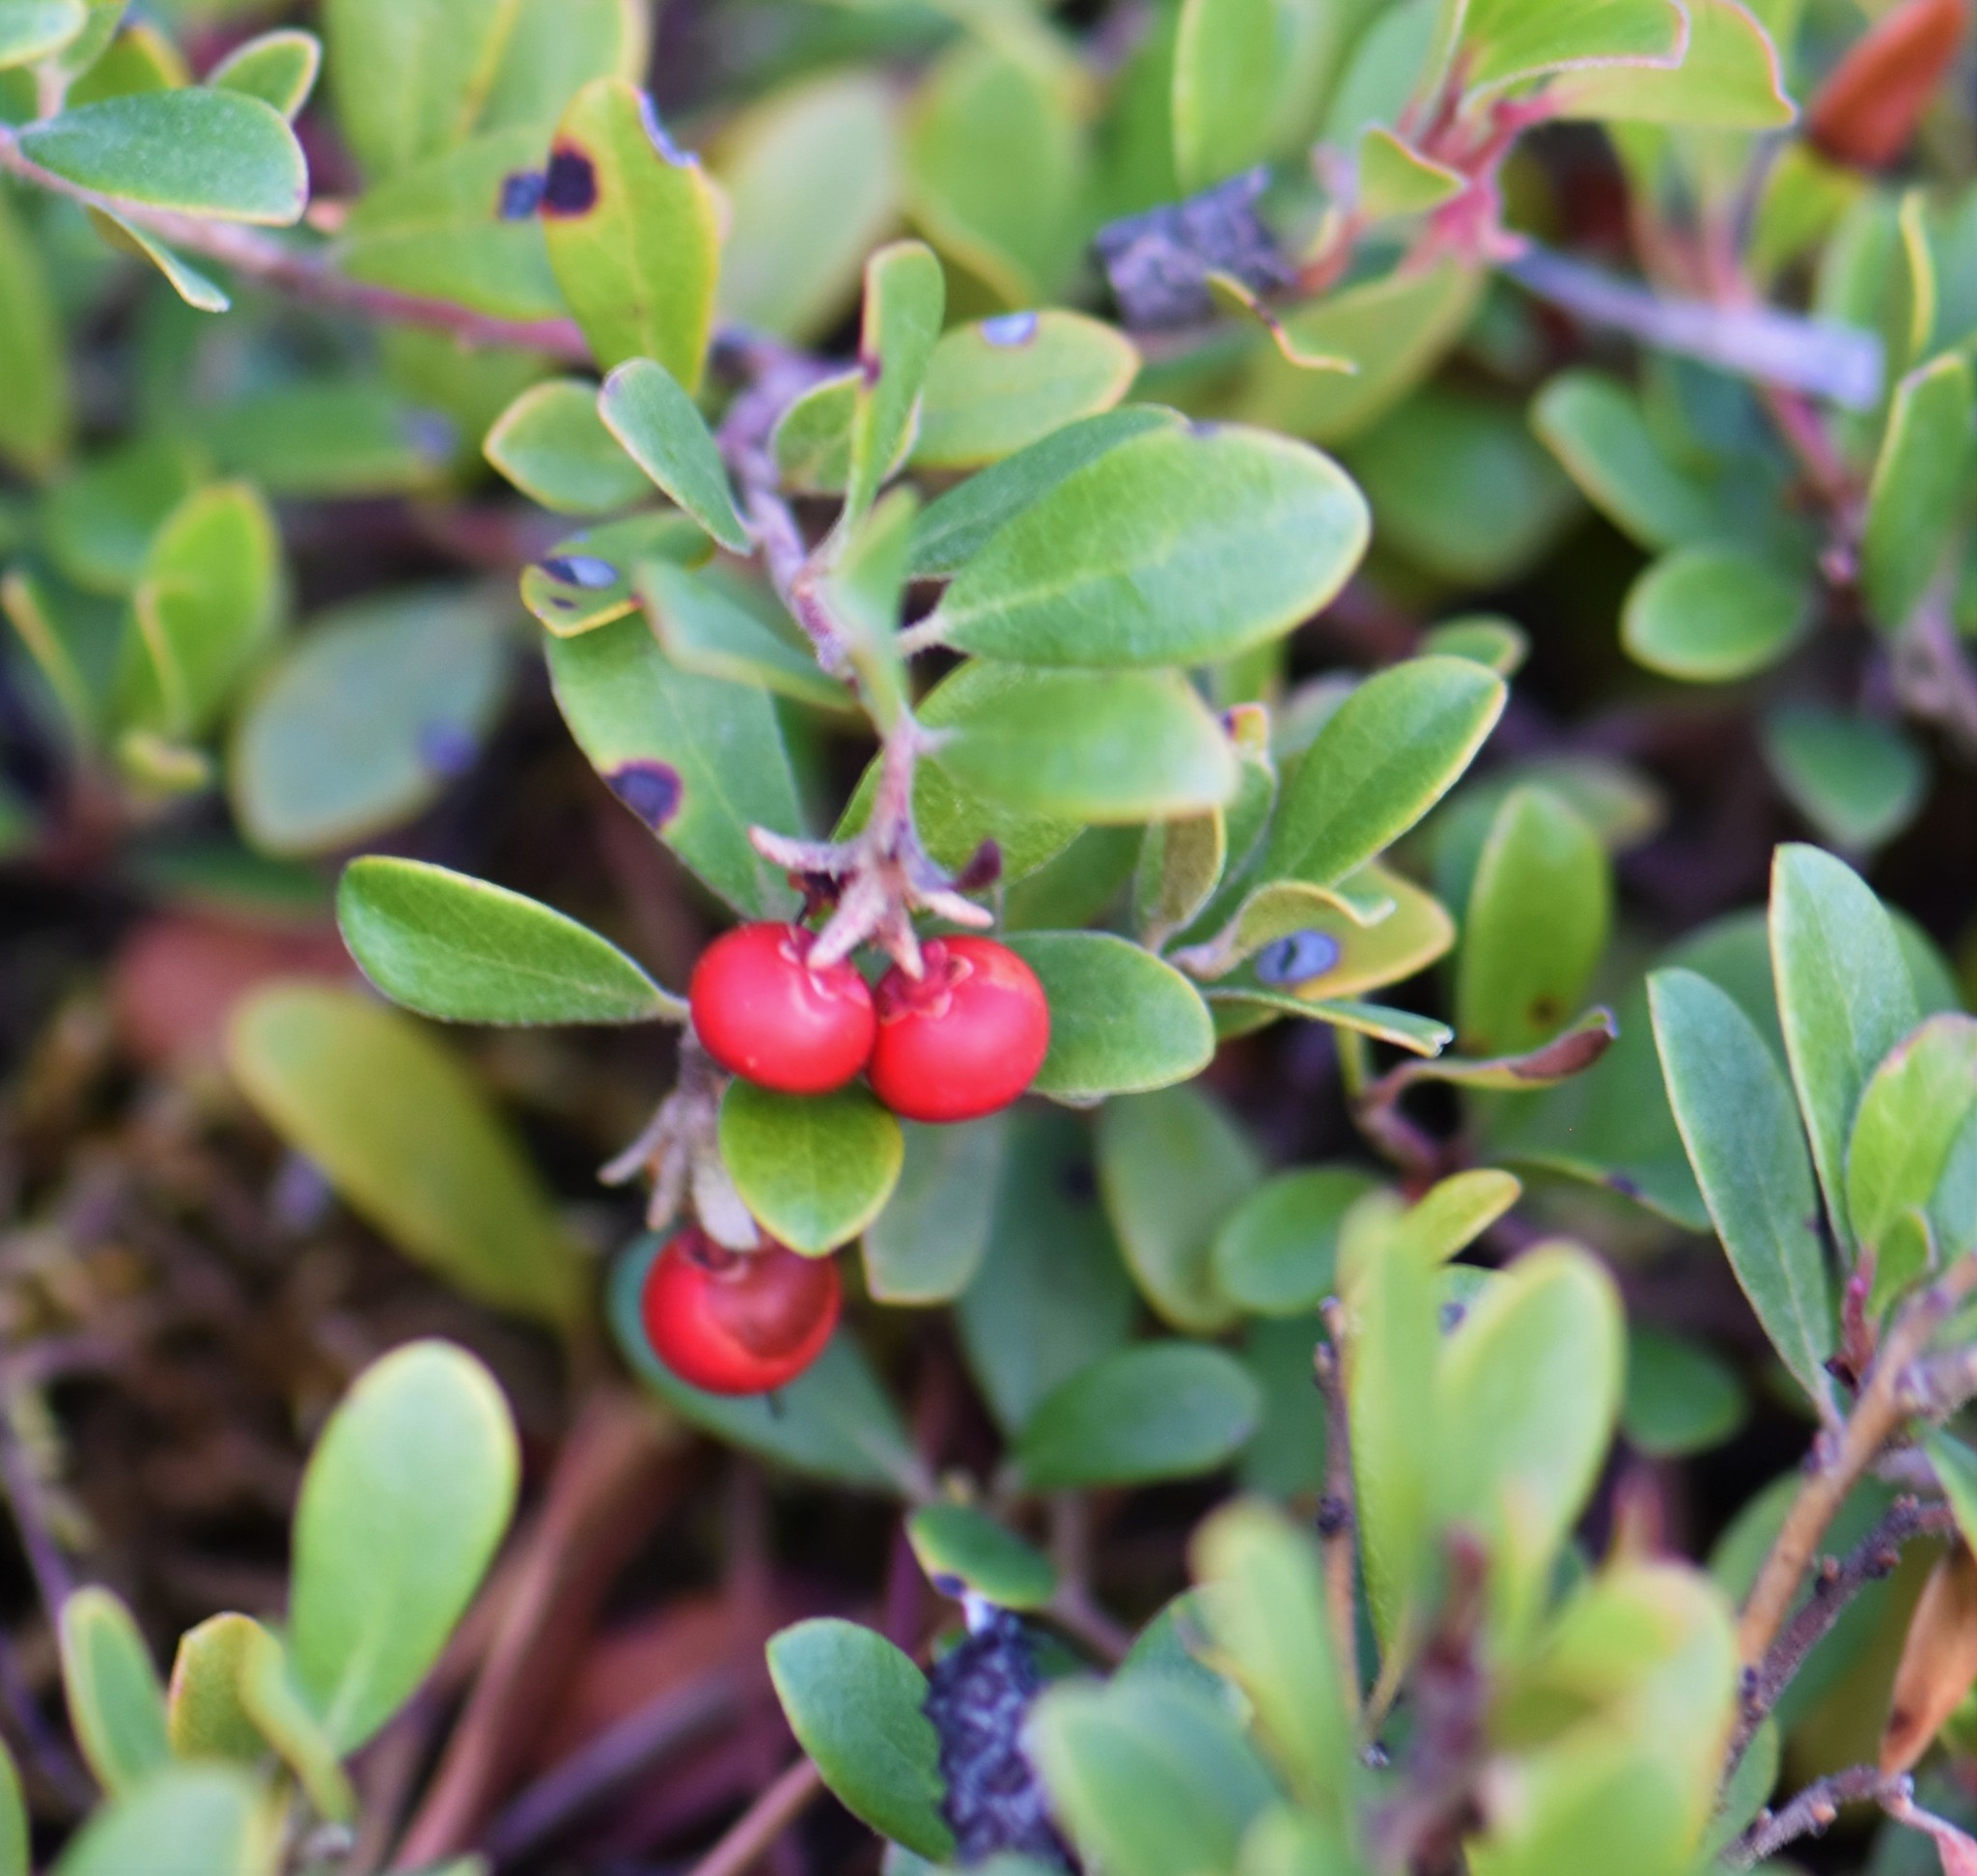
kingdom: Plantae
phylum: Tracheophyta
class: Magnoliopsida
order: Ericales
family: Ericaceae
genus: Arctostaphylos
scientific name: Arctostaphylos uva-ursi
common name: Bearberry
